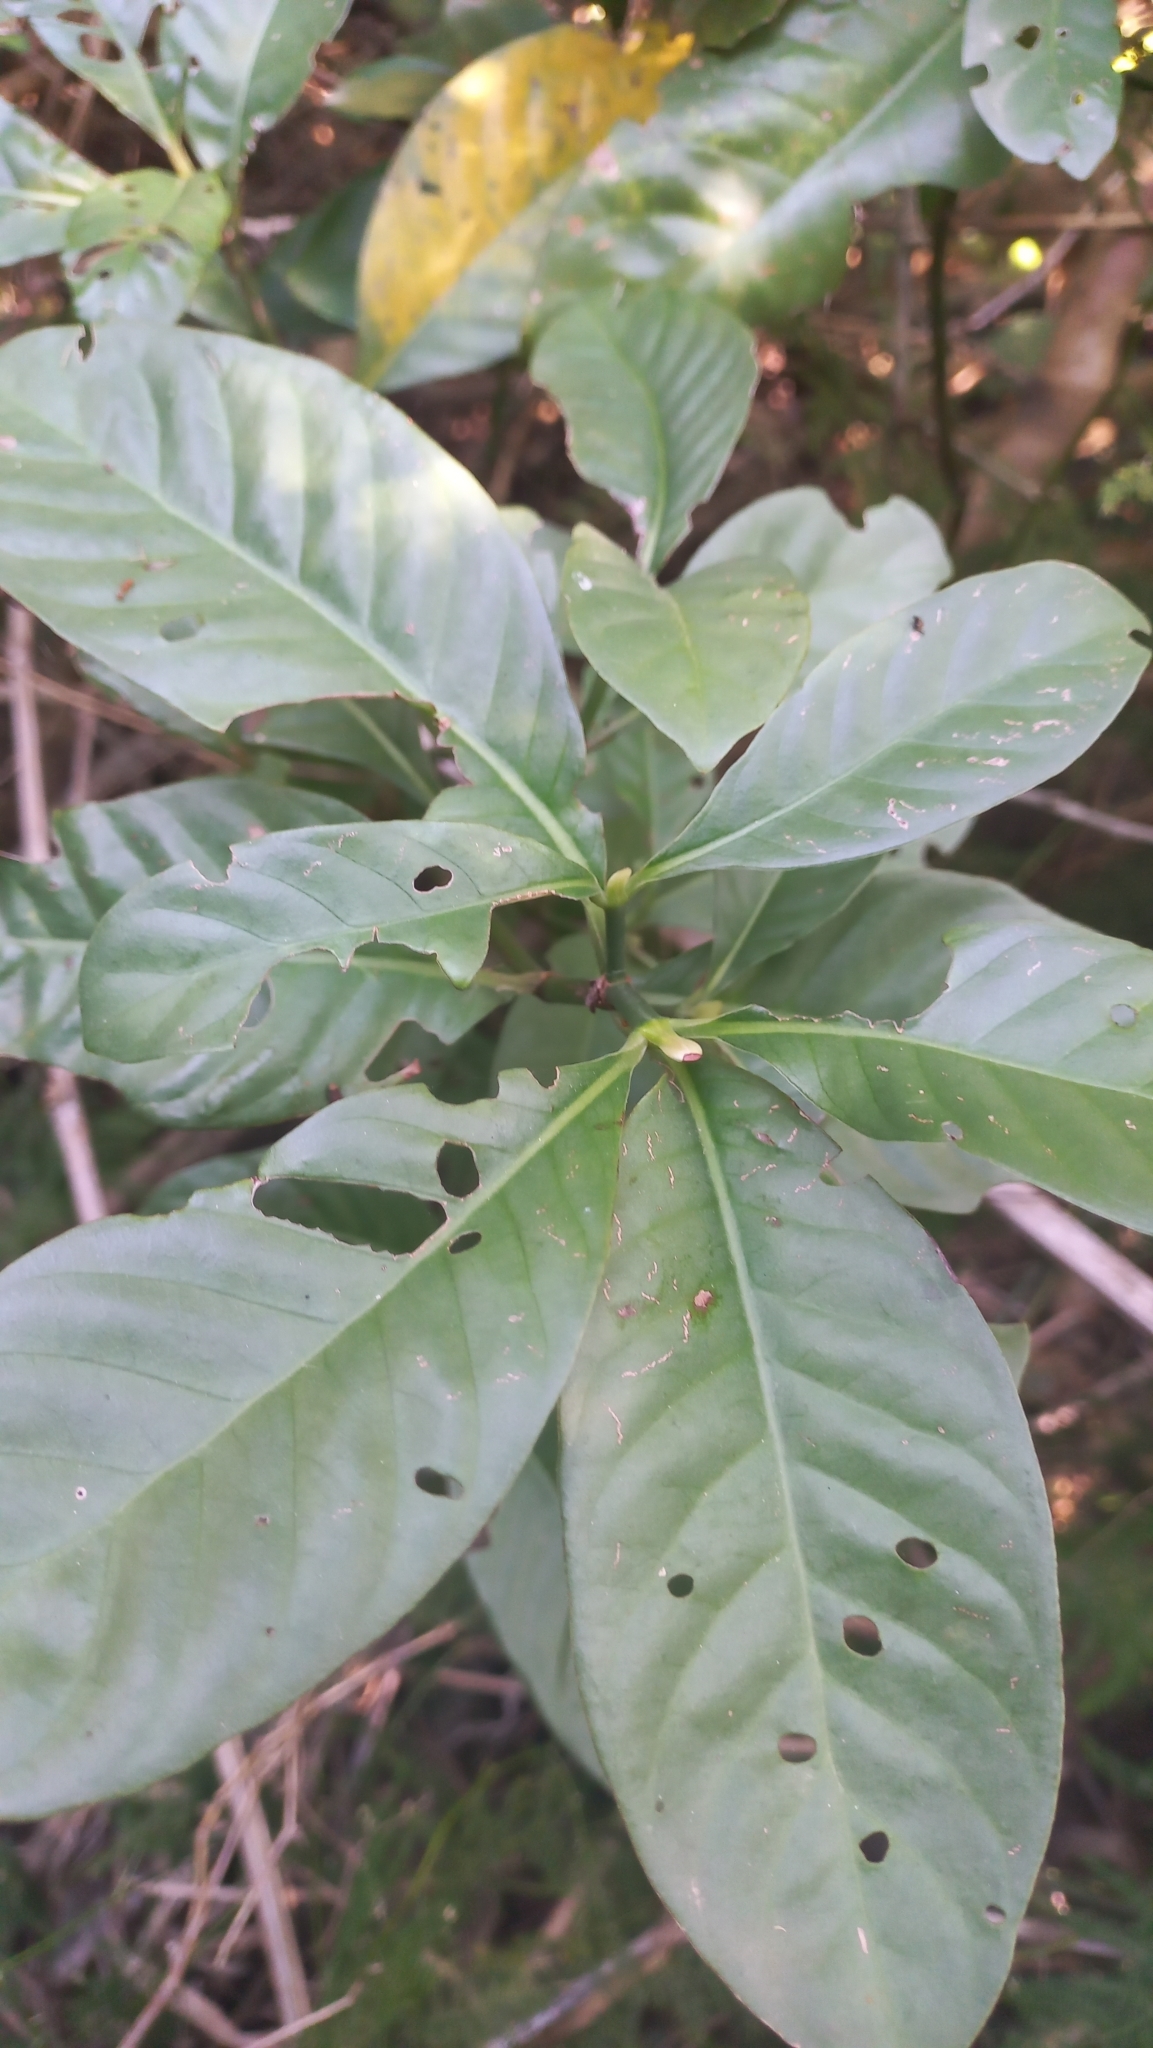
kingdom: Plantae
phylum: Tracheophyta
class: Magnoliopsida
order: Gentianales
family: Rubiaceae
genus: Psychotria
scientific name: Psychotria carthagenensis
